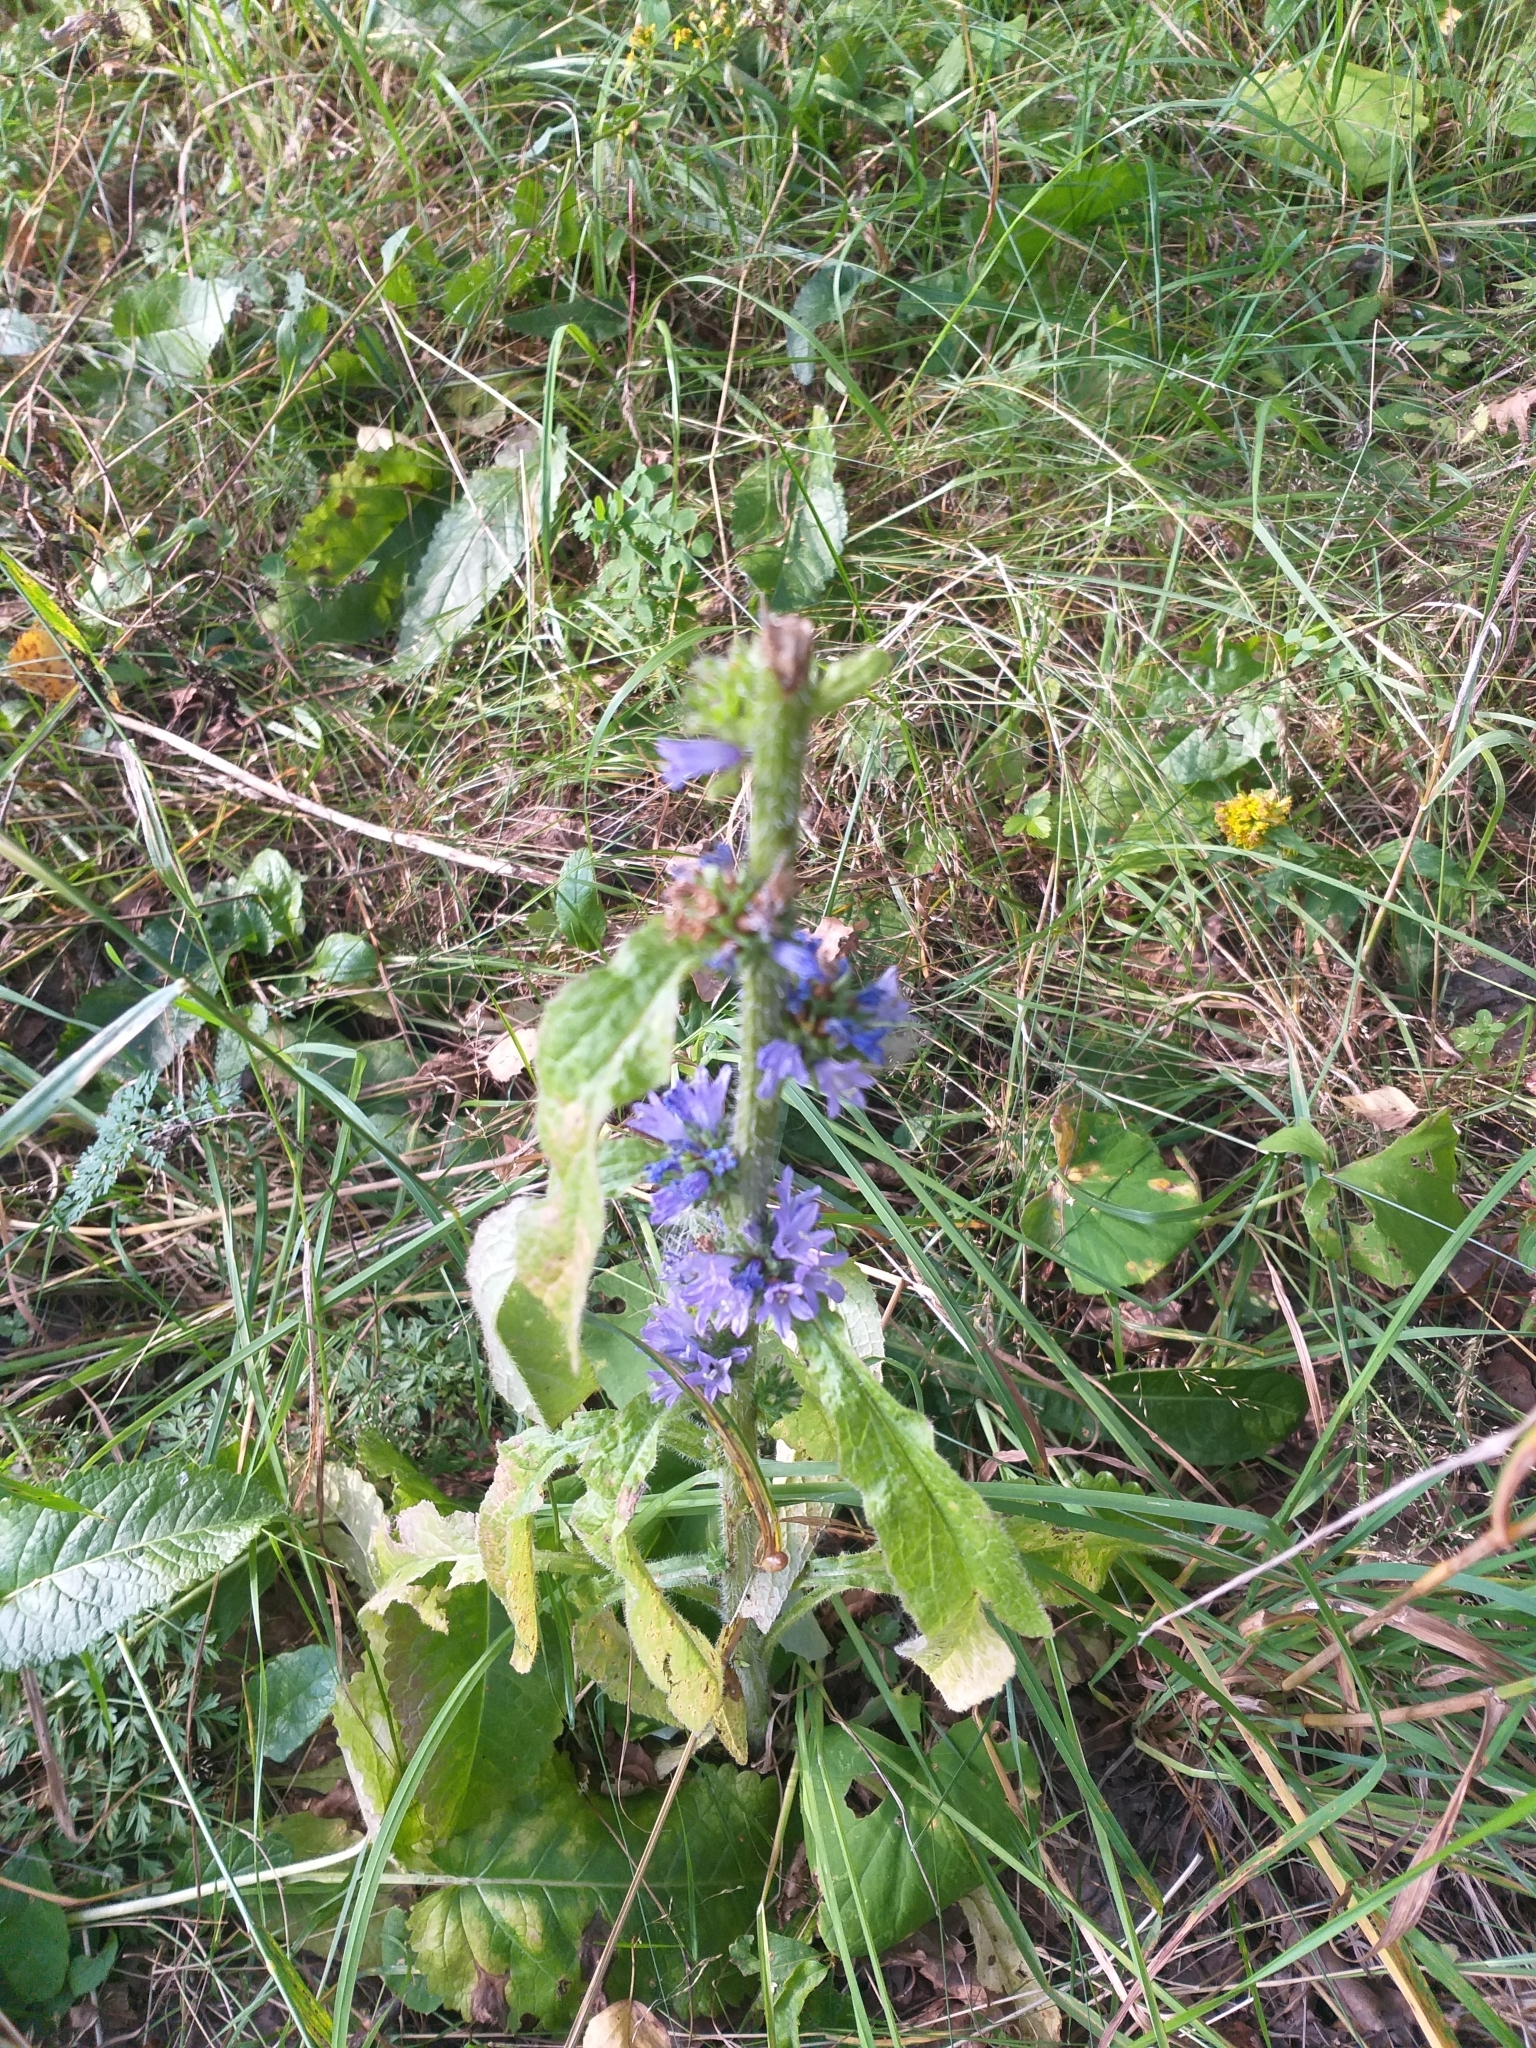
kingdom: Plantae
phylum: Tracheophyta
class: Magnoliopsida
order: Asterales
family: Campanulaceae
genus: Campanula
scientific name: Campanula cervicaria
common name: Bristly bellflower
